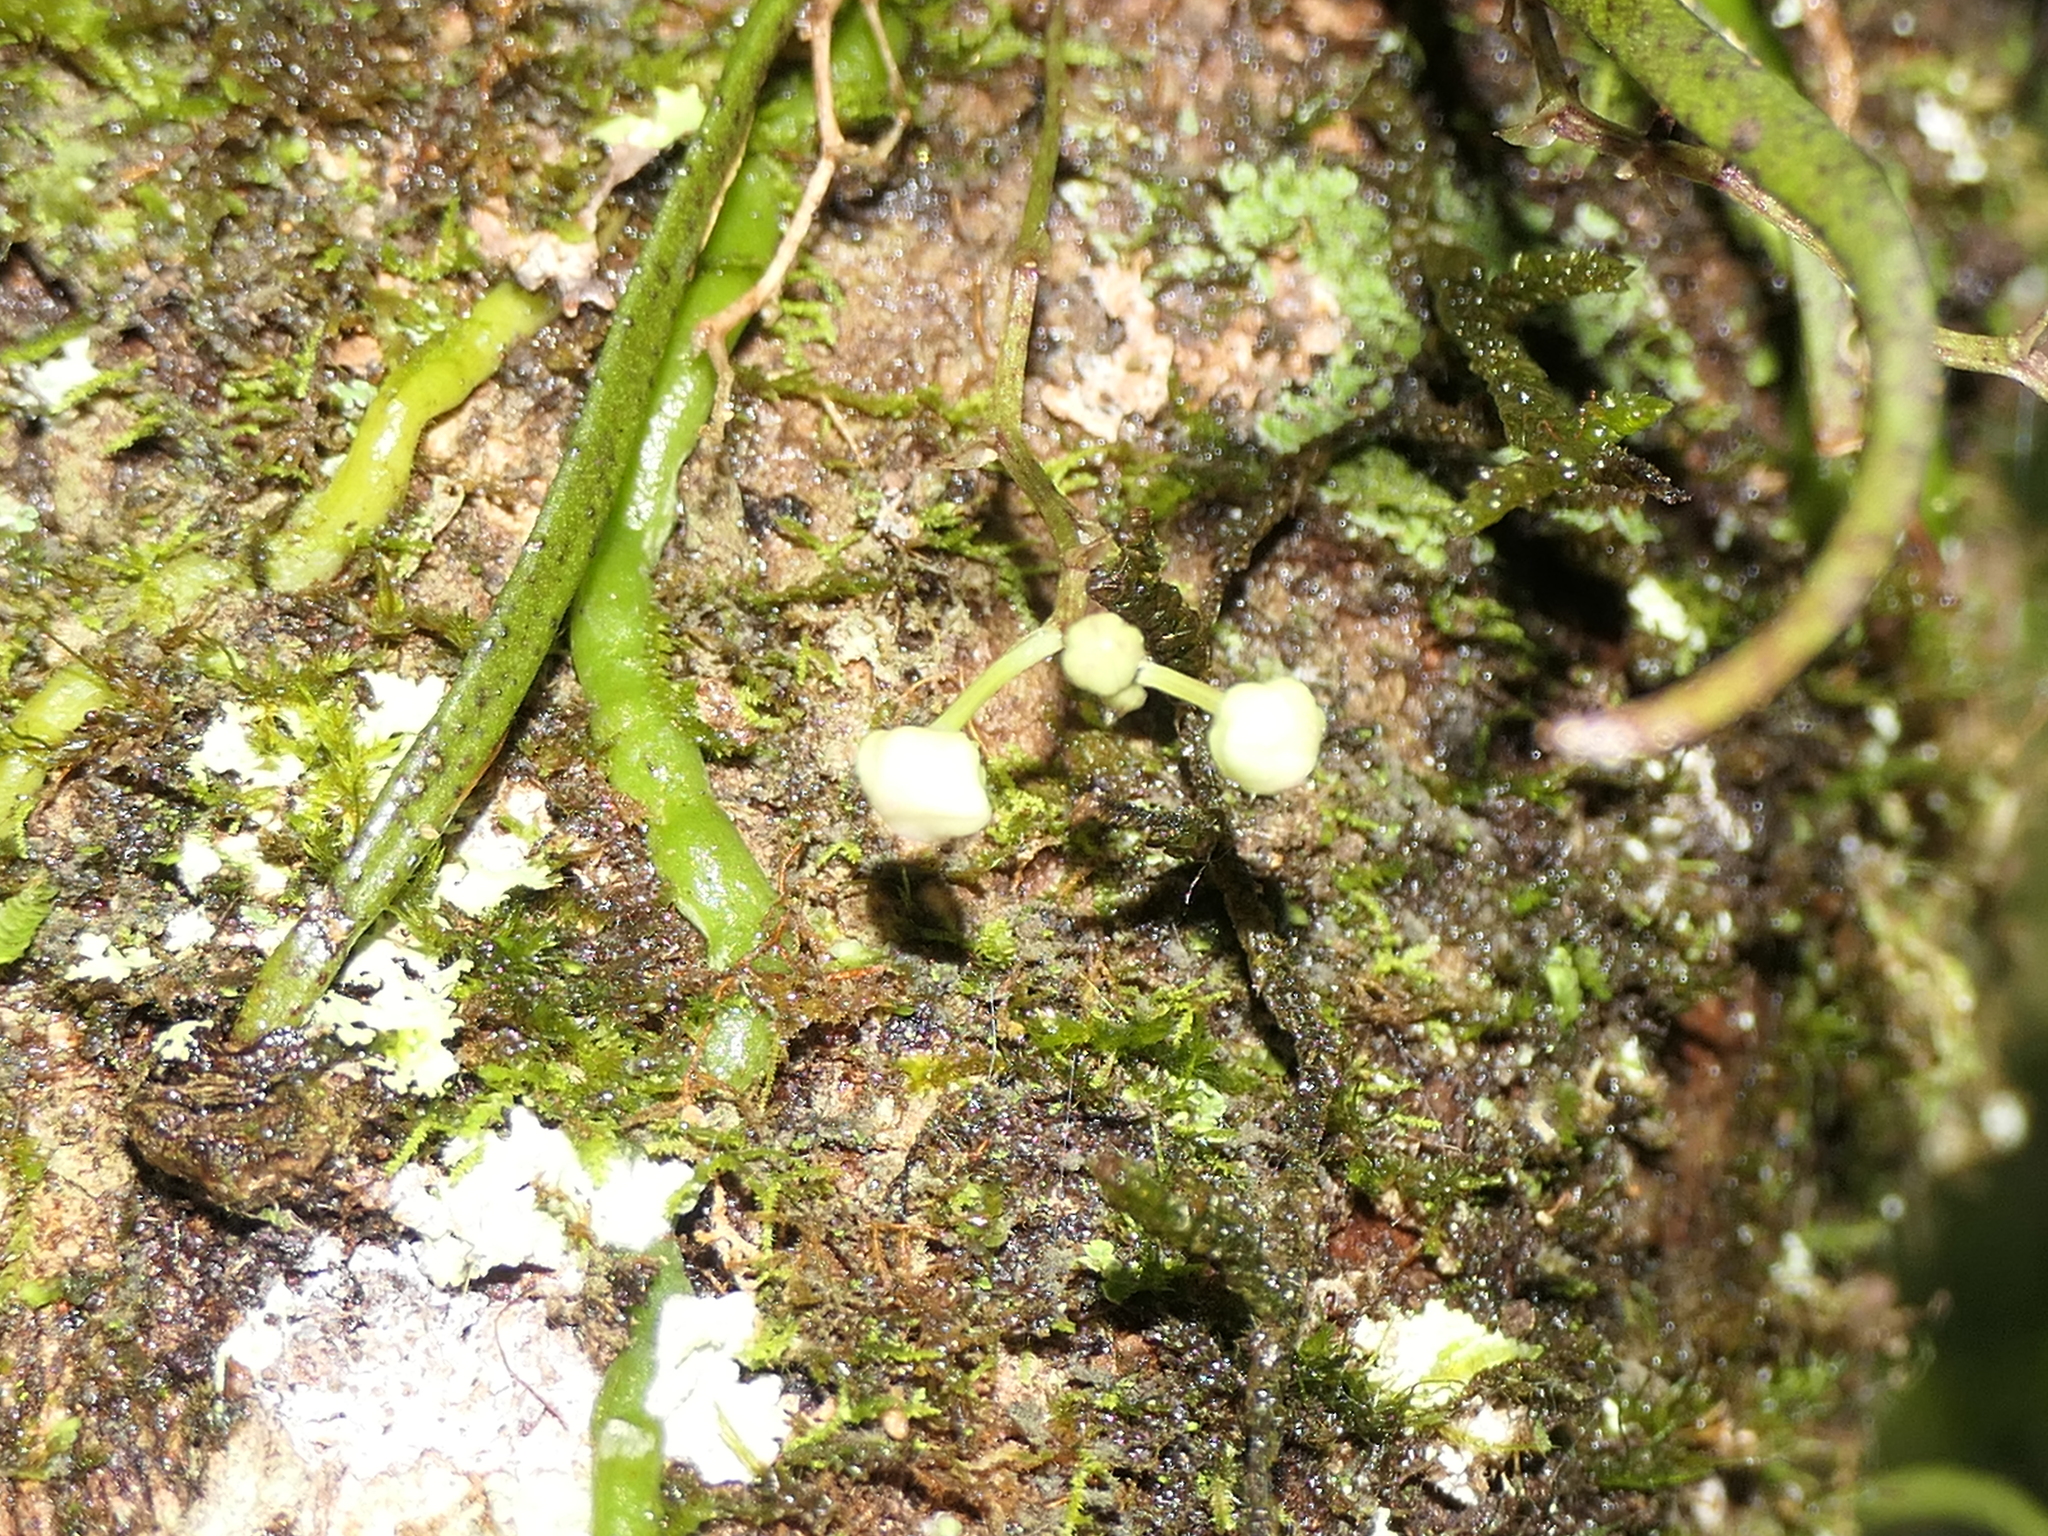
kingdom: Plantae
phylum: Tracheophyta
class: Liliopsida
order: Asparagales
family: Orchidaceae
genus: Sarcochilus
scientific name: Sarcochilus hillii
